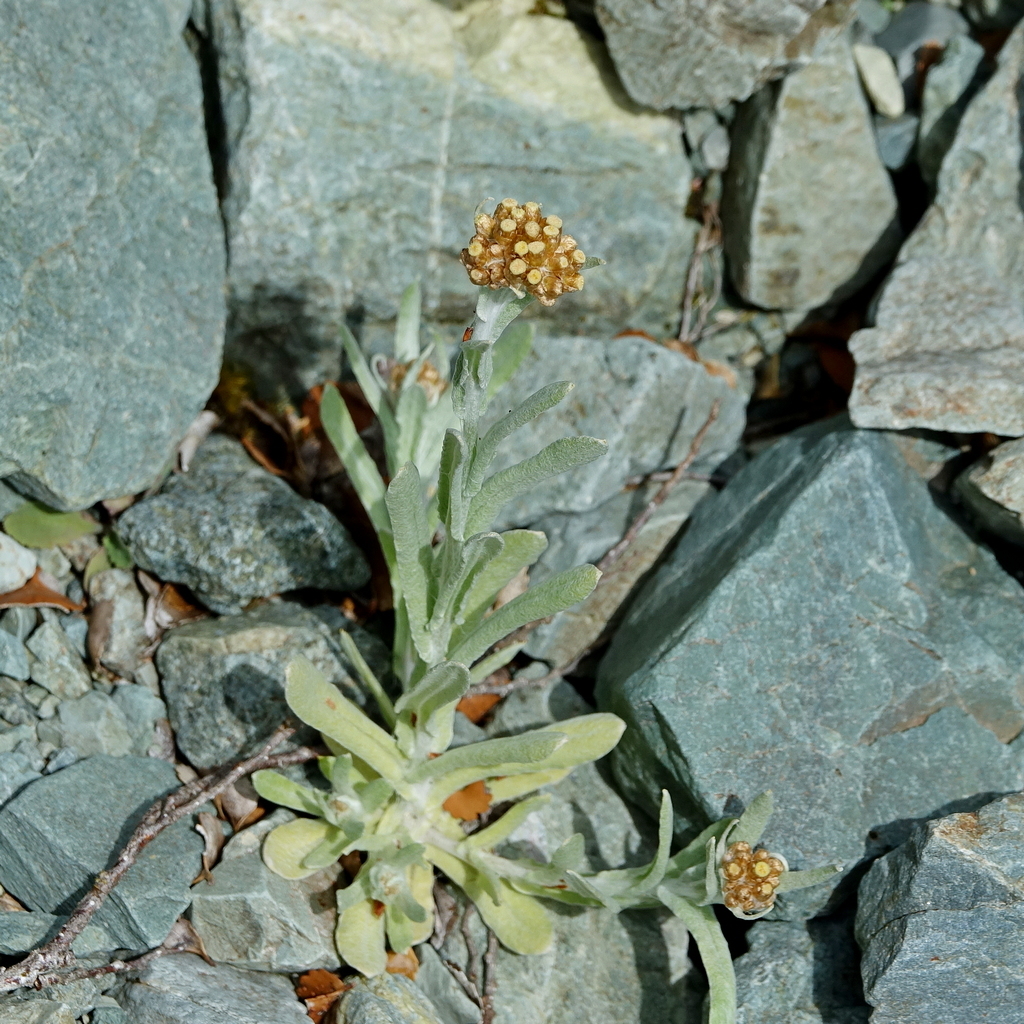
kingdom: Plantae
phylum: Tracheophyta
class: Magnoliopsida
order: Asterales
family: Asteraceae
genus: Helichrysum
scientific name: Helichrysum luteoalbum
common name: Daisy
